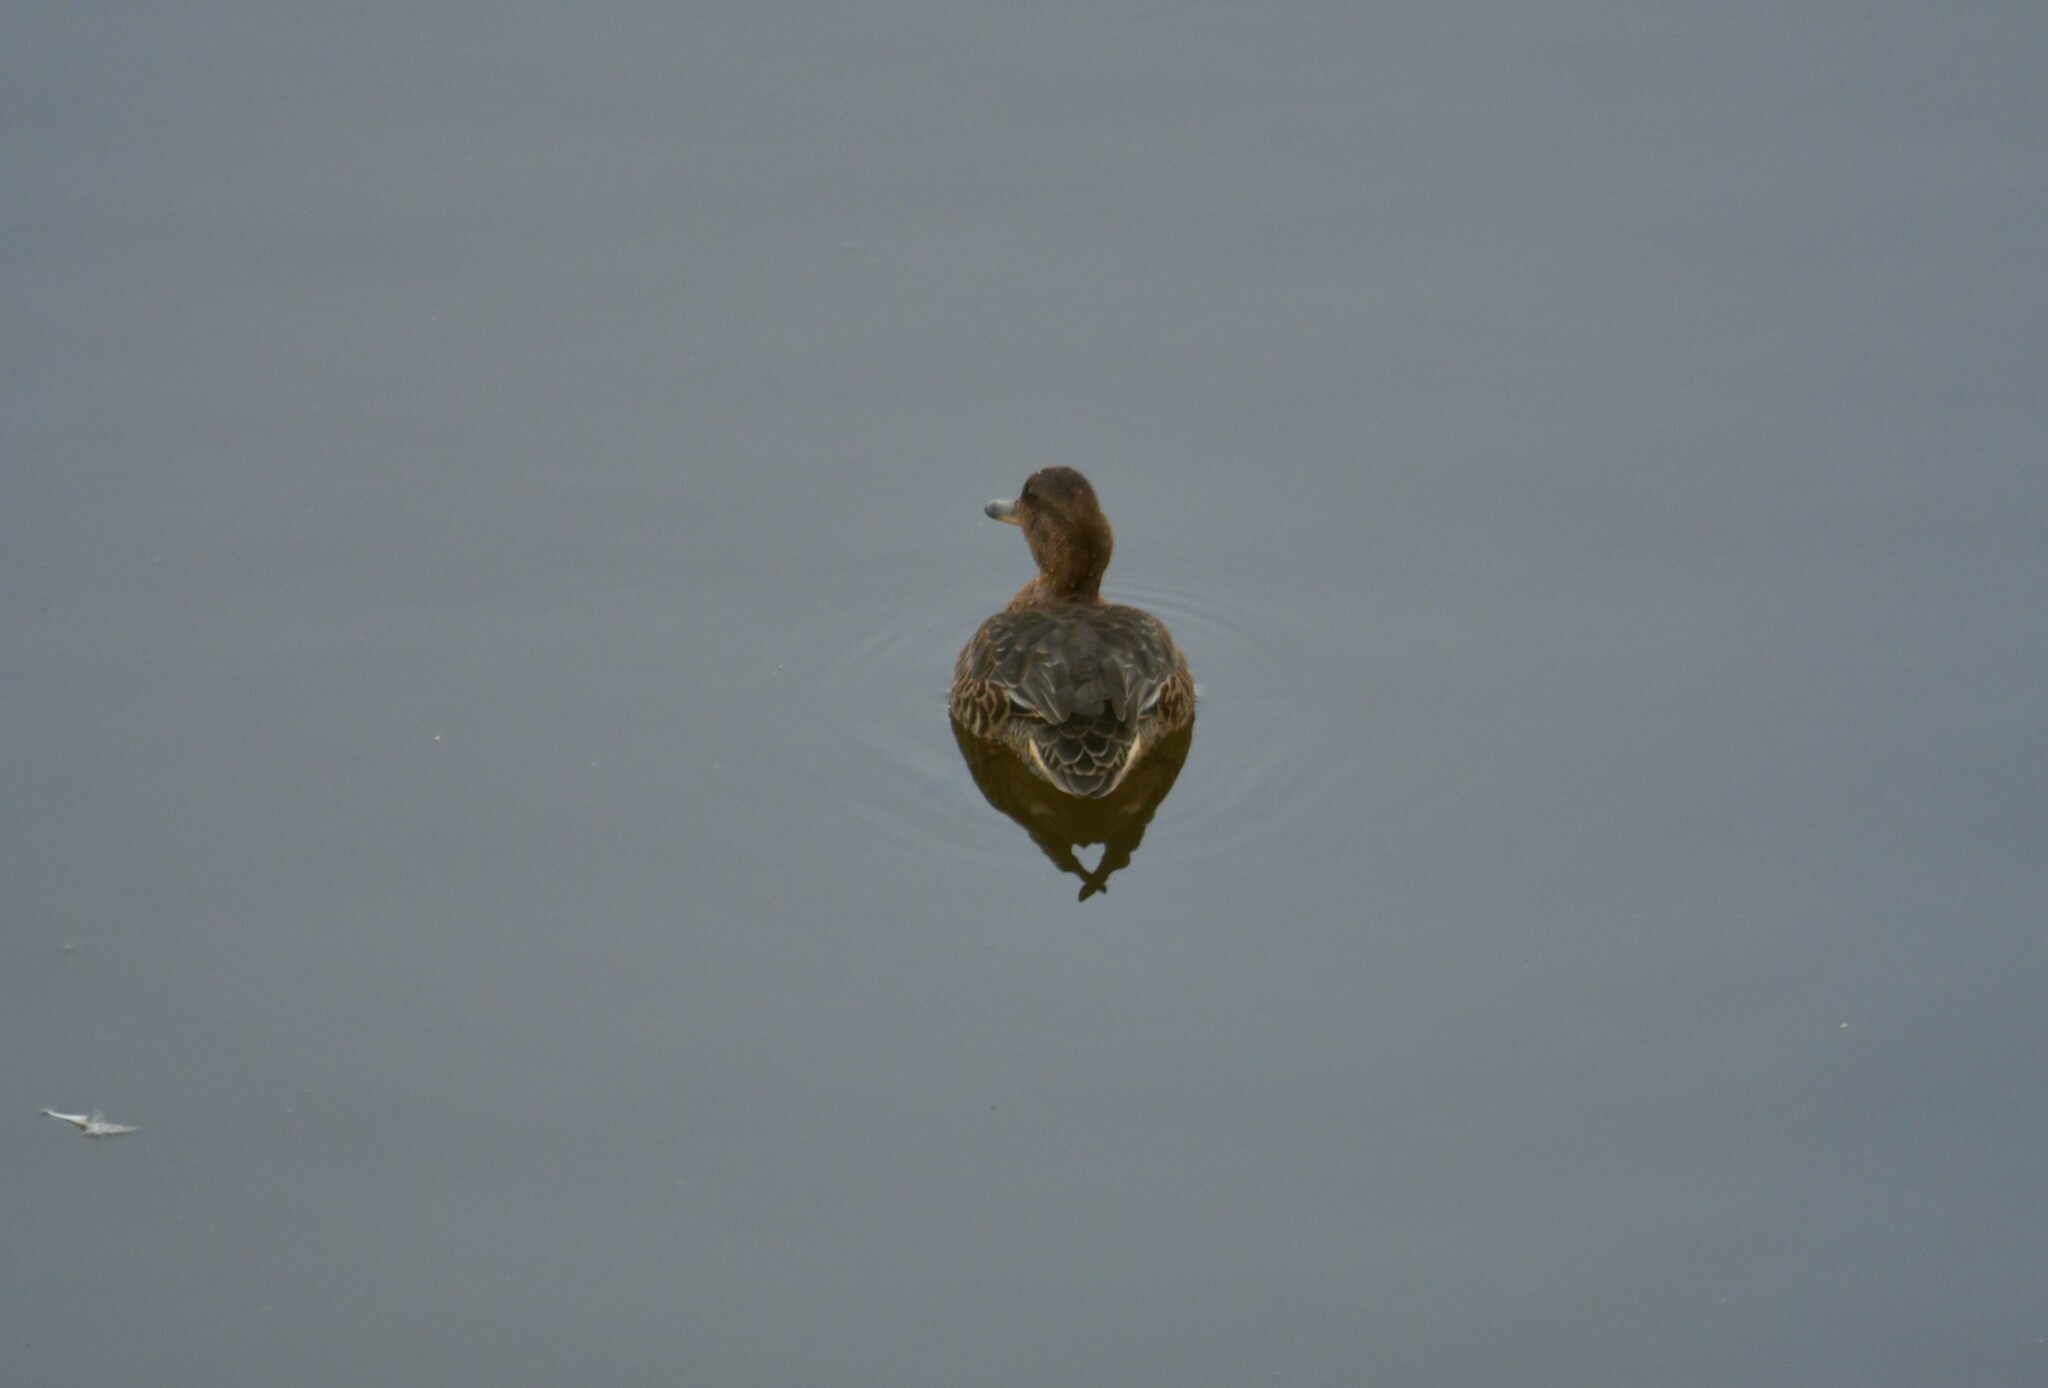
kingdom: Animalia
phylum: Chordata
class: Aves
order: Anseriformes
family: Anatidae
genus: Anas
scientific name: Anas crecca
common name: Eurasian teal
